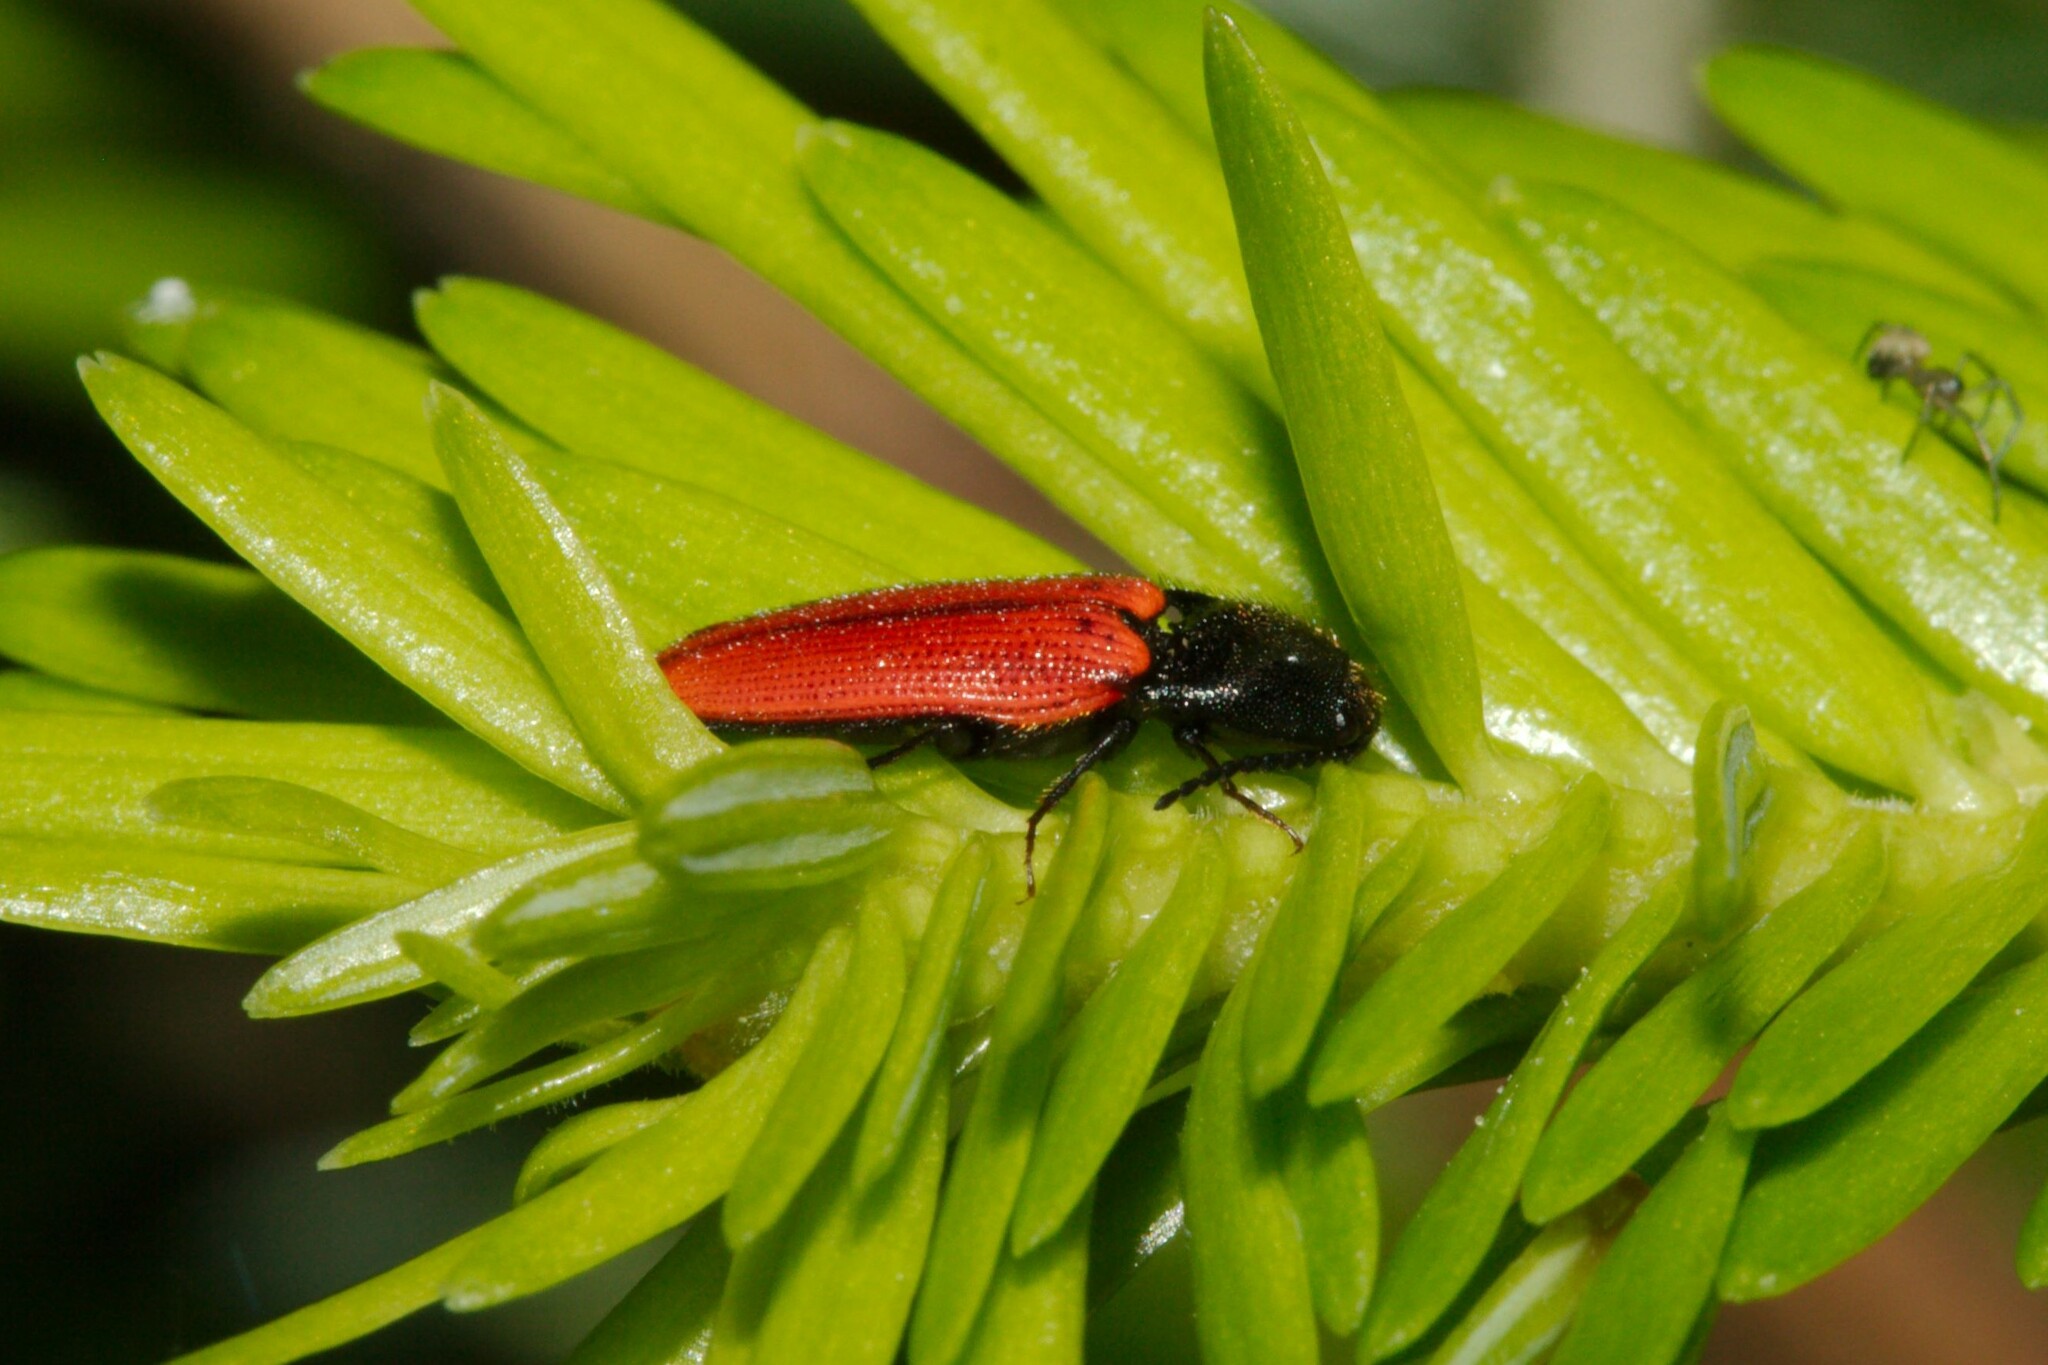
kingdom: Animalia
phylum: Arthropoda
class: Insecta
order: Coleoptera
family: Elateridae
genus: Ampedus
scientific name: Ampedus sanguineus
